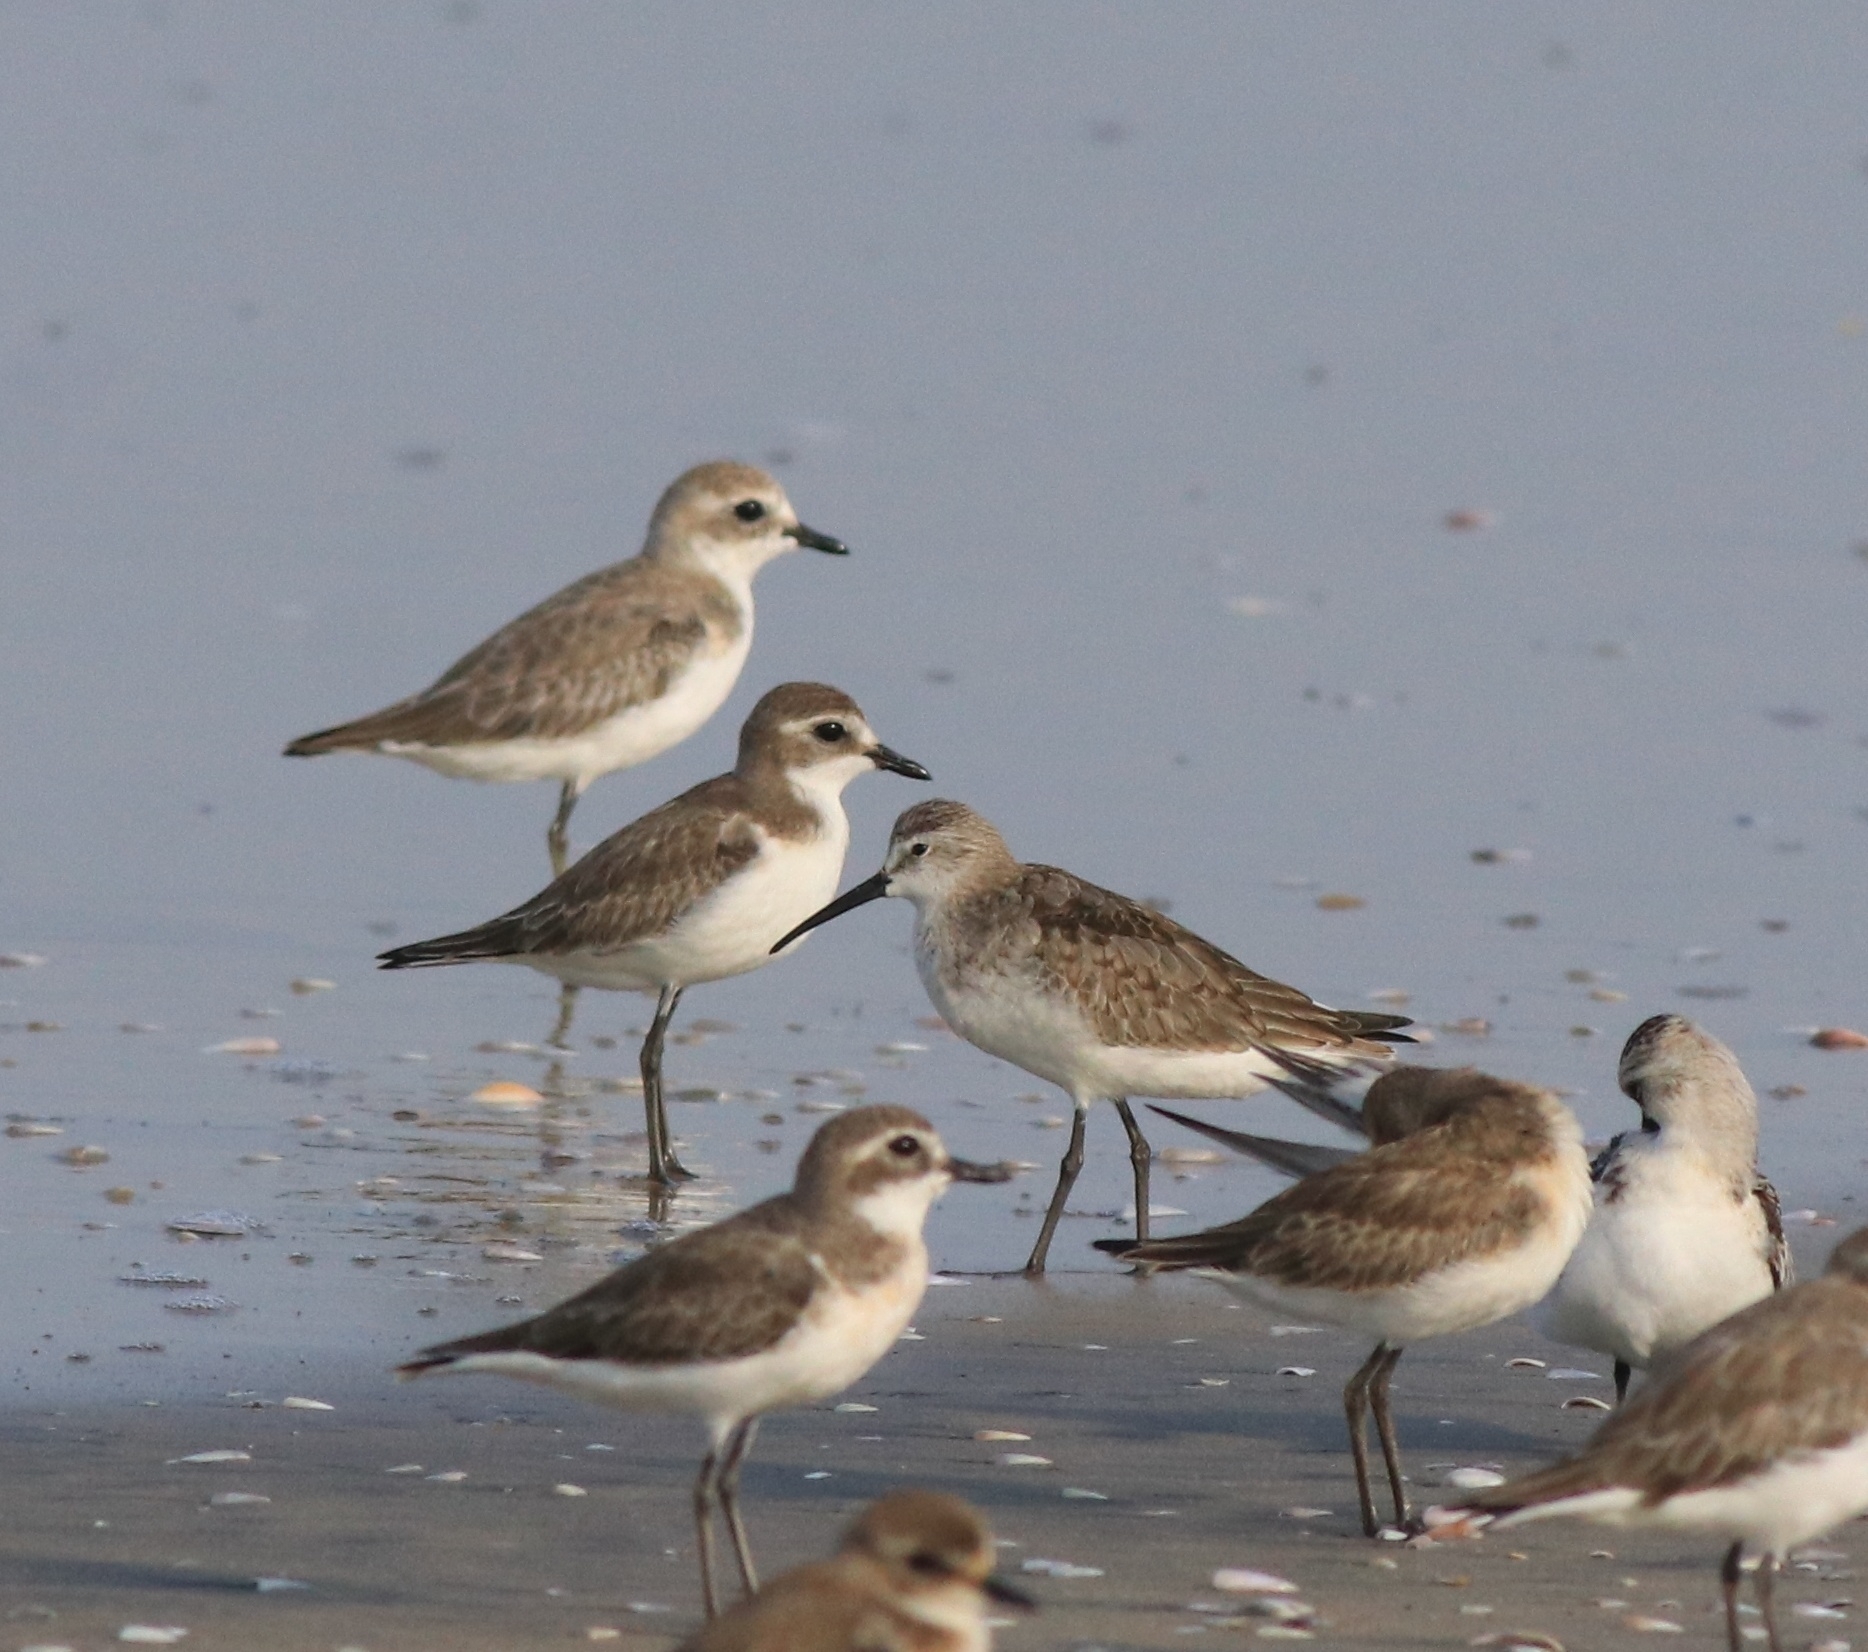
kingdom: Animalia
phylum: Chordata
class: Aves
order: Charadriiformes
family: Scolopacidae
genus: Calidris
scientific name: Calidris ferruginea
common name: Curlew sandpiper
